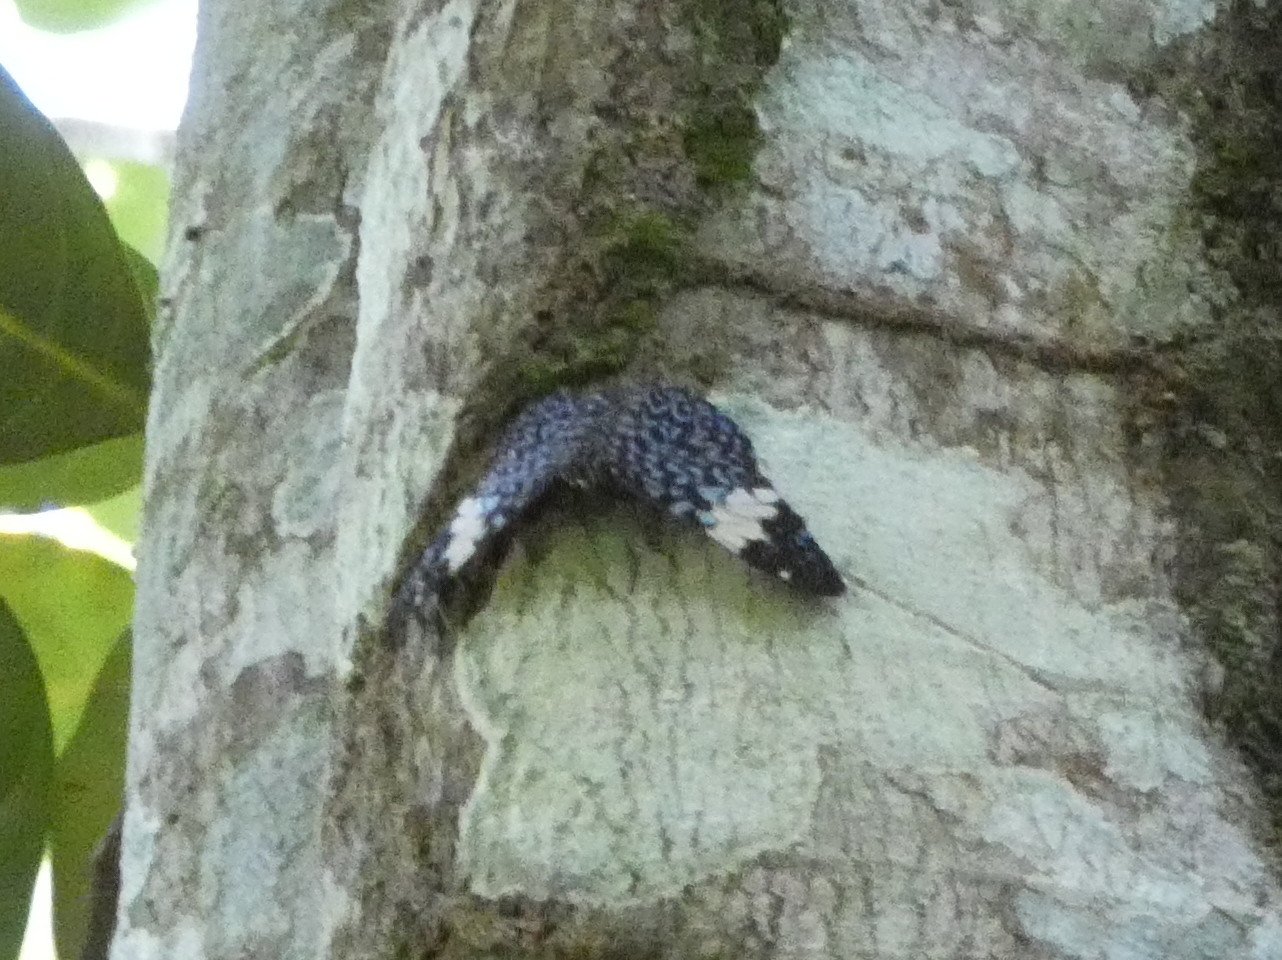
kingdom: Animalia
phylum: Arthropoda
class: Insecta
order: Lepidoptera
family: Nymphalidae
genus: Hamadryas
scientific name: Hamadryas amphinome
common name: Red cracker
